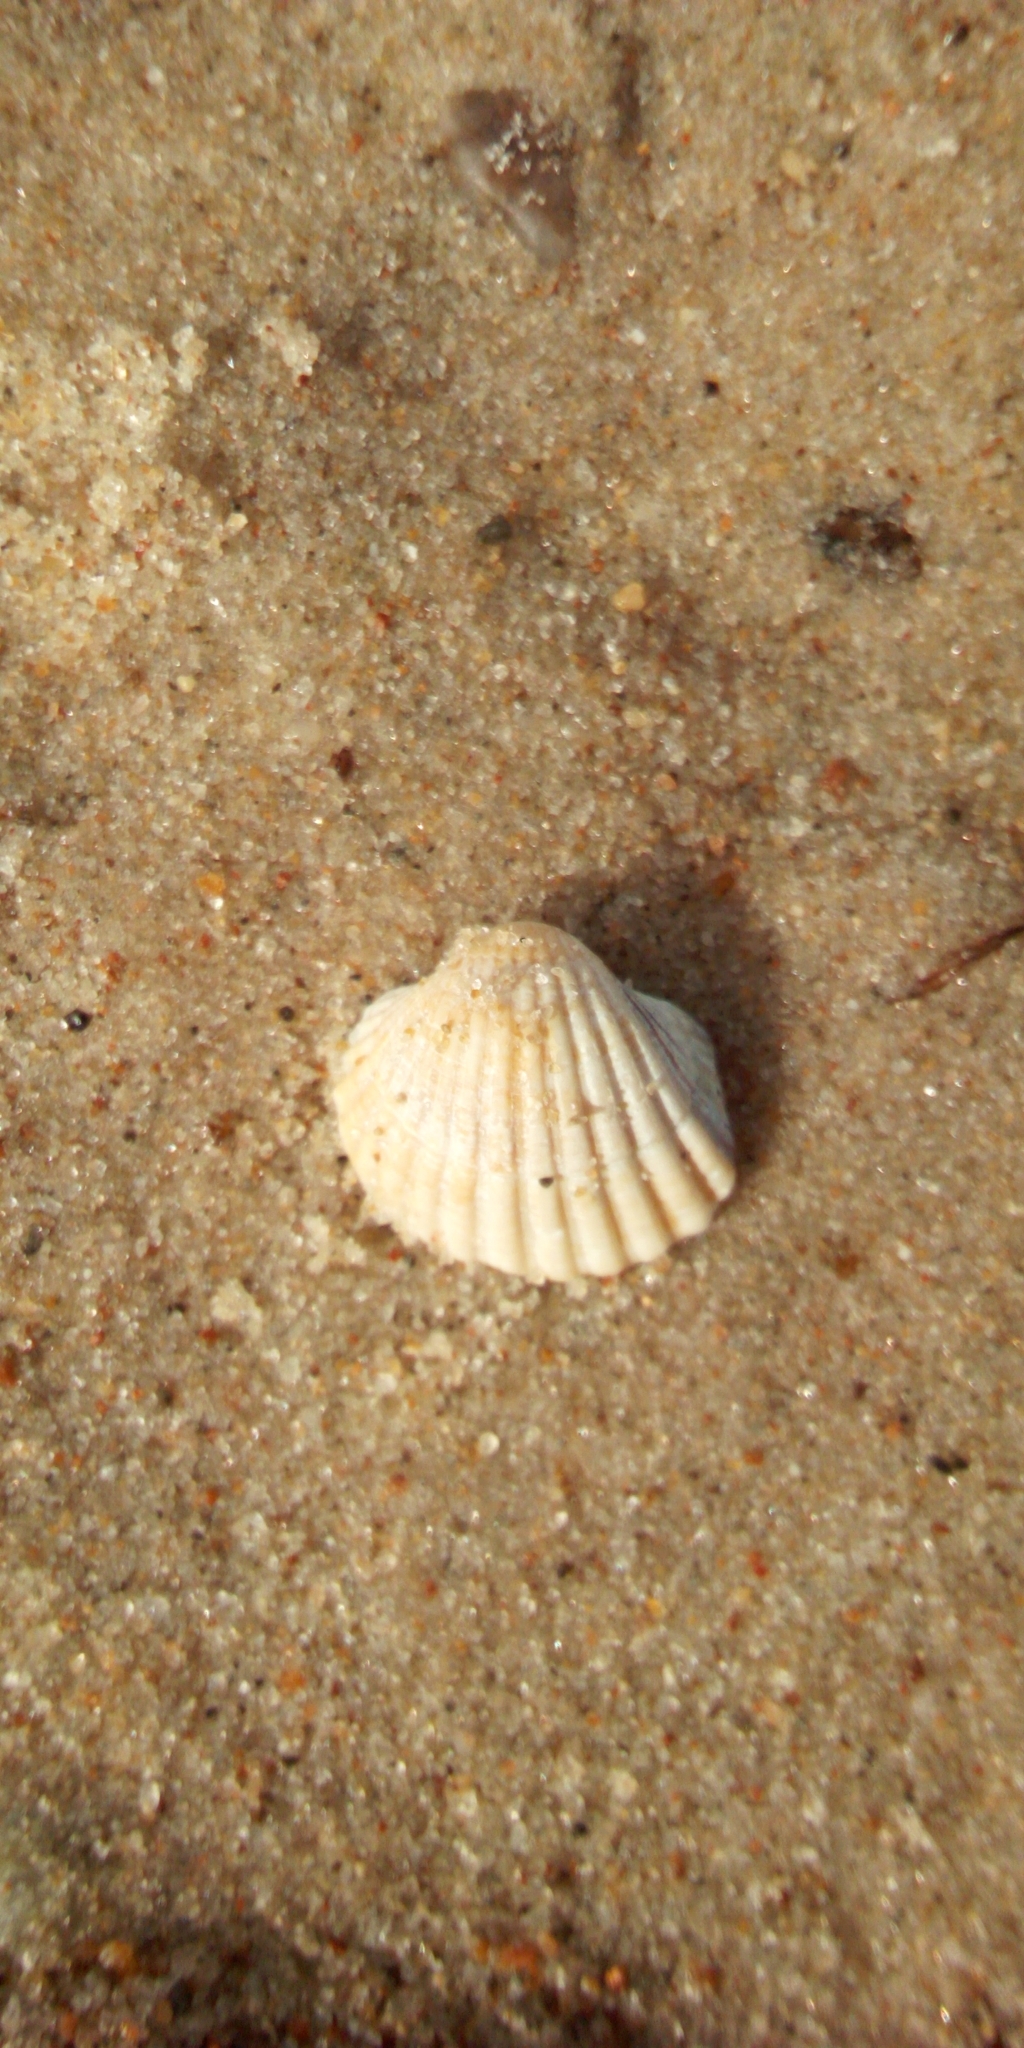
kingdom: Animalia
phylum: Mollusca
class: Bivalvia
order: Cardiida
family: Cardiidae
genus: Cerastoderma
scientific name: Cerastoderma glaucum
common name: Lagoon cockle
